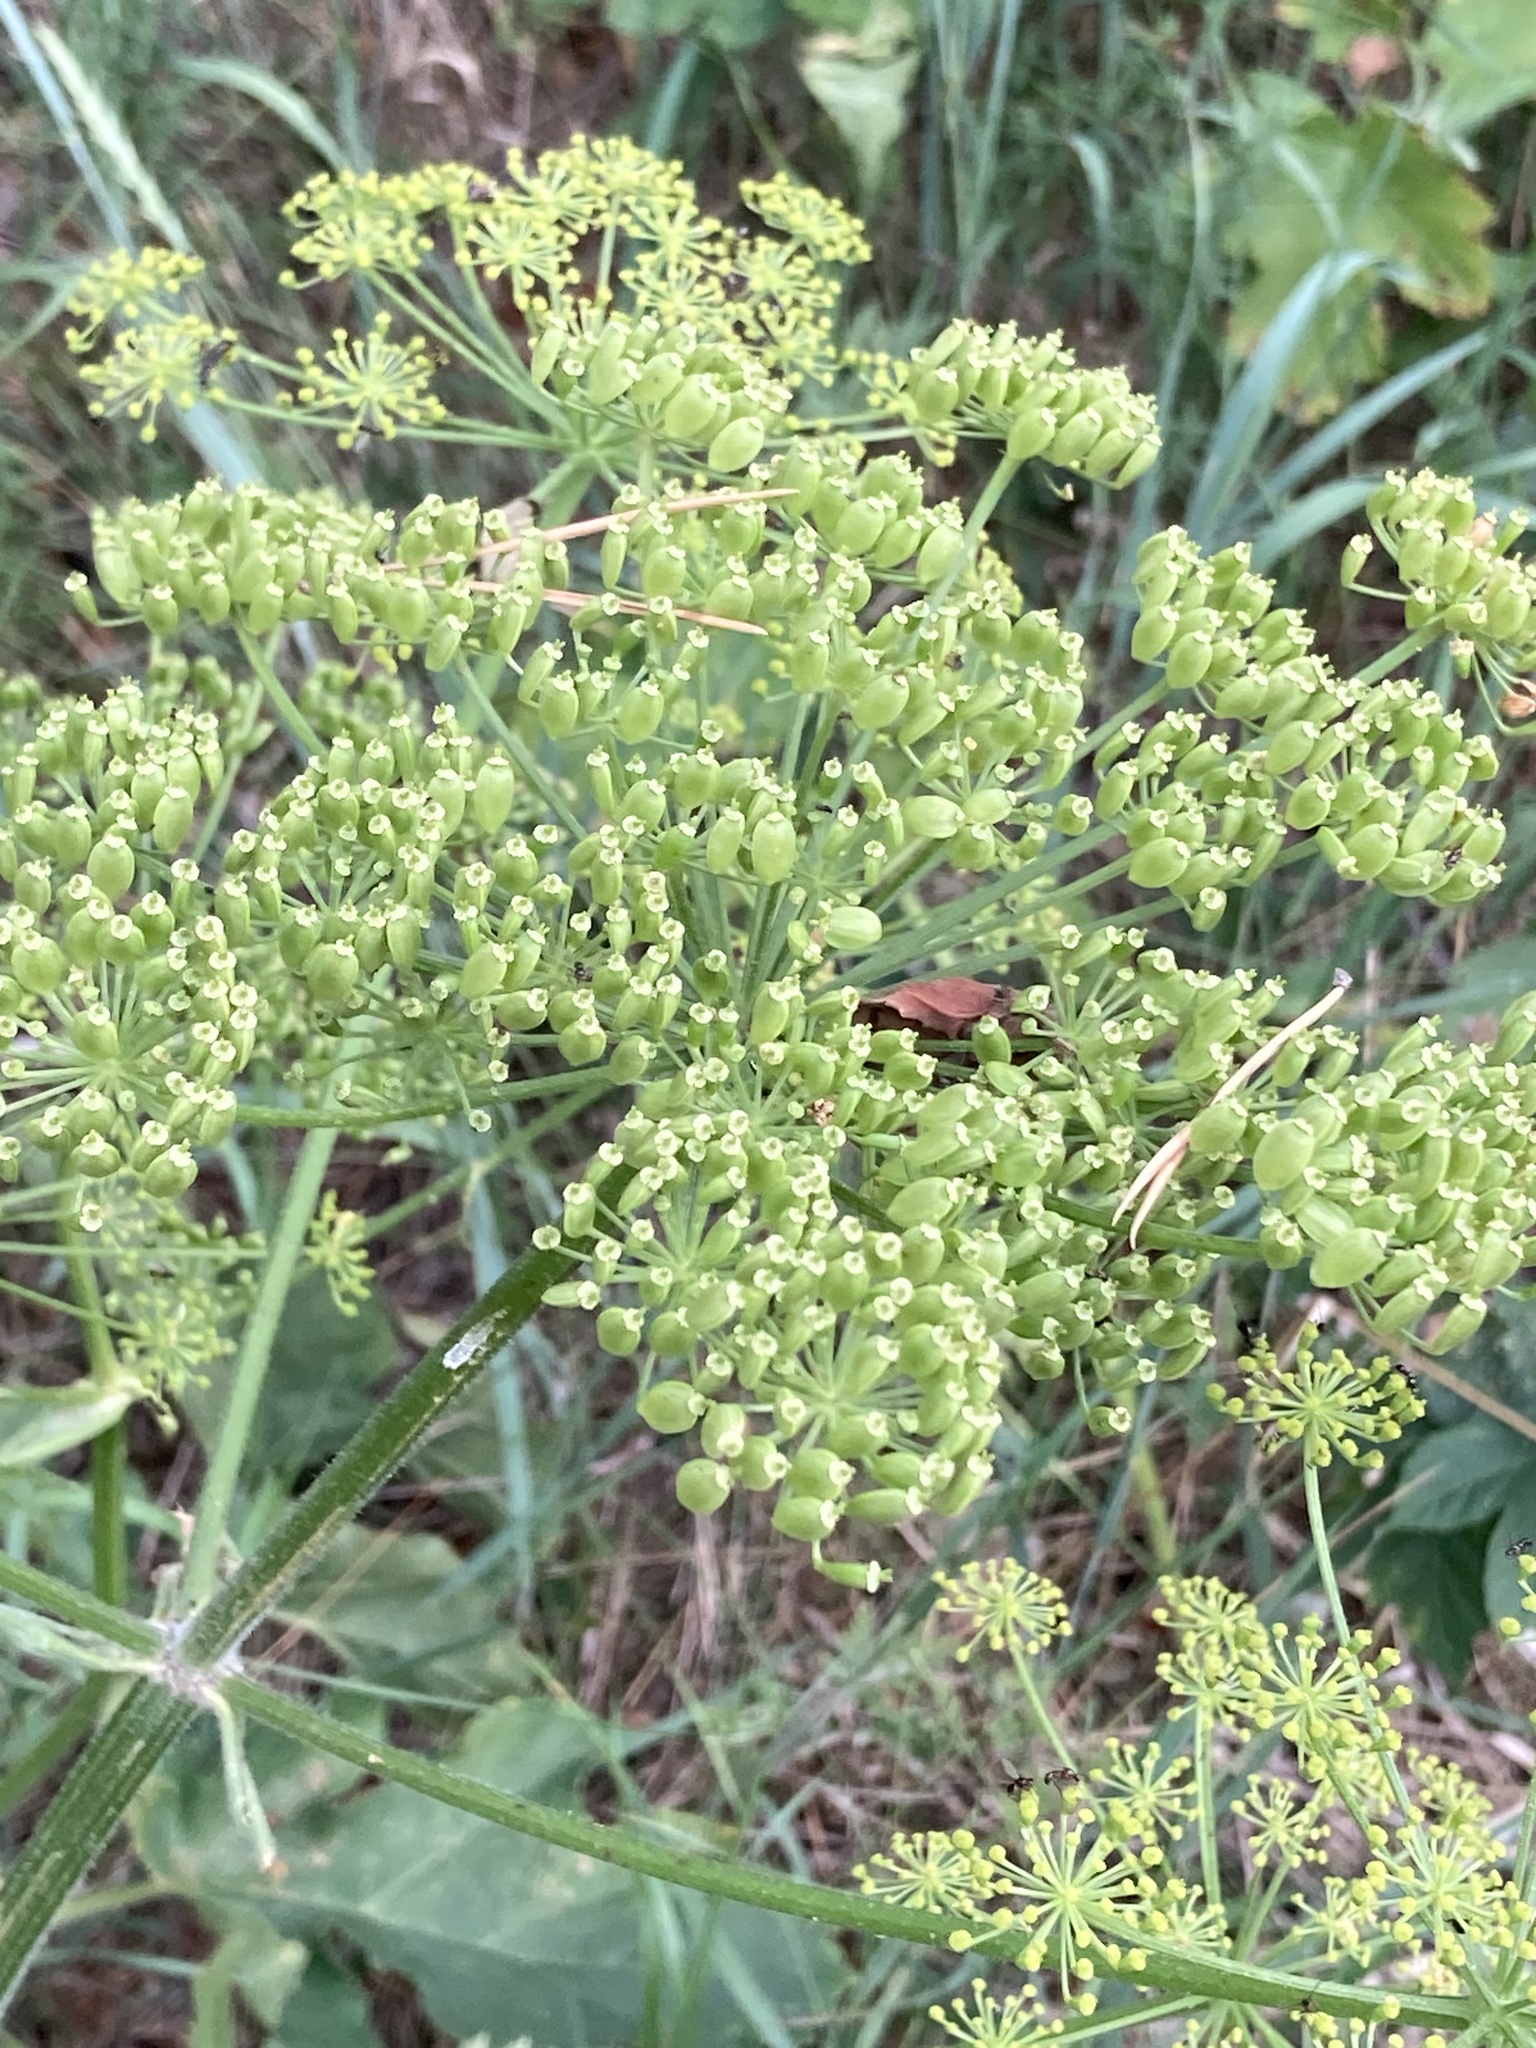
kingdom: Plantae
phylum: Tracheophyta
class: Magnoliopsida
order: Apiales
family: Apiaceae
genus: Heracleum
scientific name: Heracleum sphondylium
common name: Hogweed
